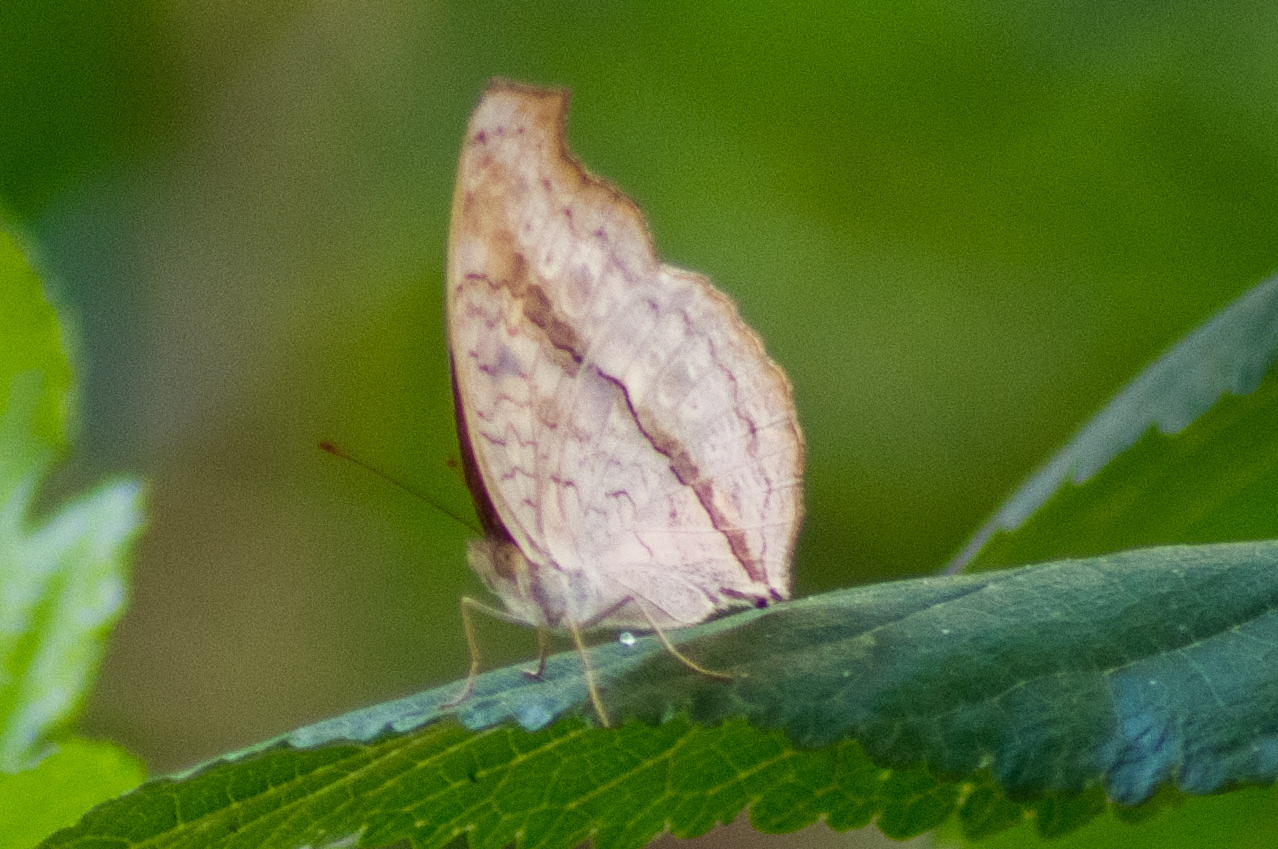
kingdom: Animalia
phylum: Arthropoda
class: Insecta
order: Lepidoptera
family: Nymphalidae
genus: Junonia
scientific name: Junonia atlites
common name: Grey pansy
